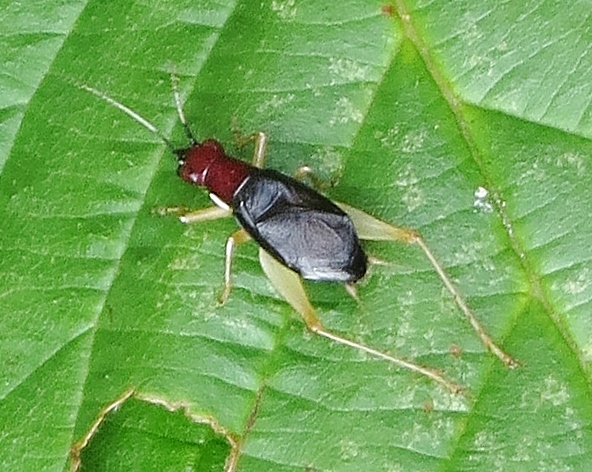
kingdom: Animalia
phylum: Arthropoda
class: Insecta
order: Orthoptera
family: Trigonidiidae
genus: Phyllopalpus
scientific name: Phyllopalpus pulchellus
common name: Handsome trig
